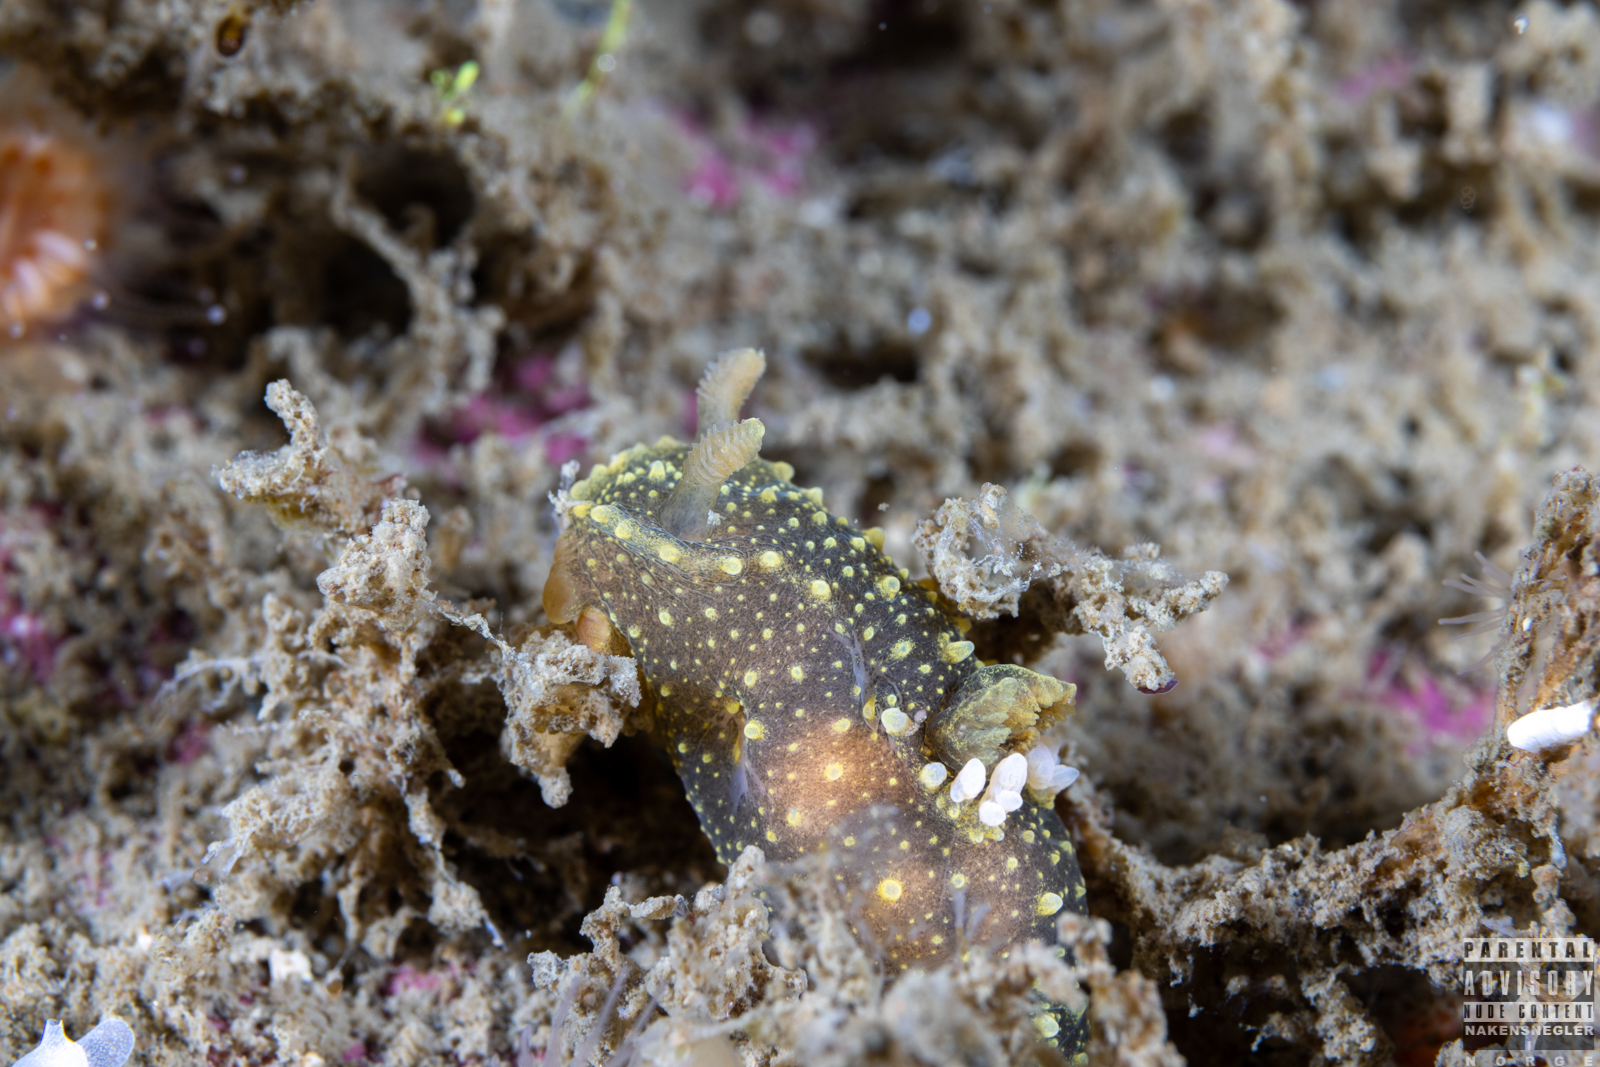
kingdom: Animalia
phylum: Mollusca
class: Gastropoda
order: Nudibranchia
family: Polyceridae
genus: Palio
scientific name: Palio dubia
